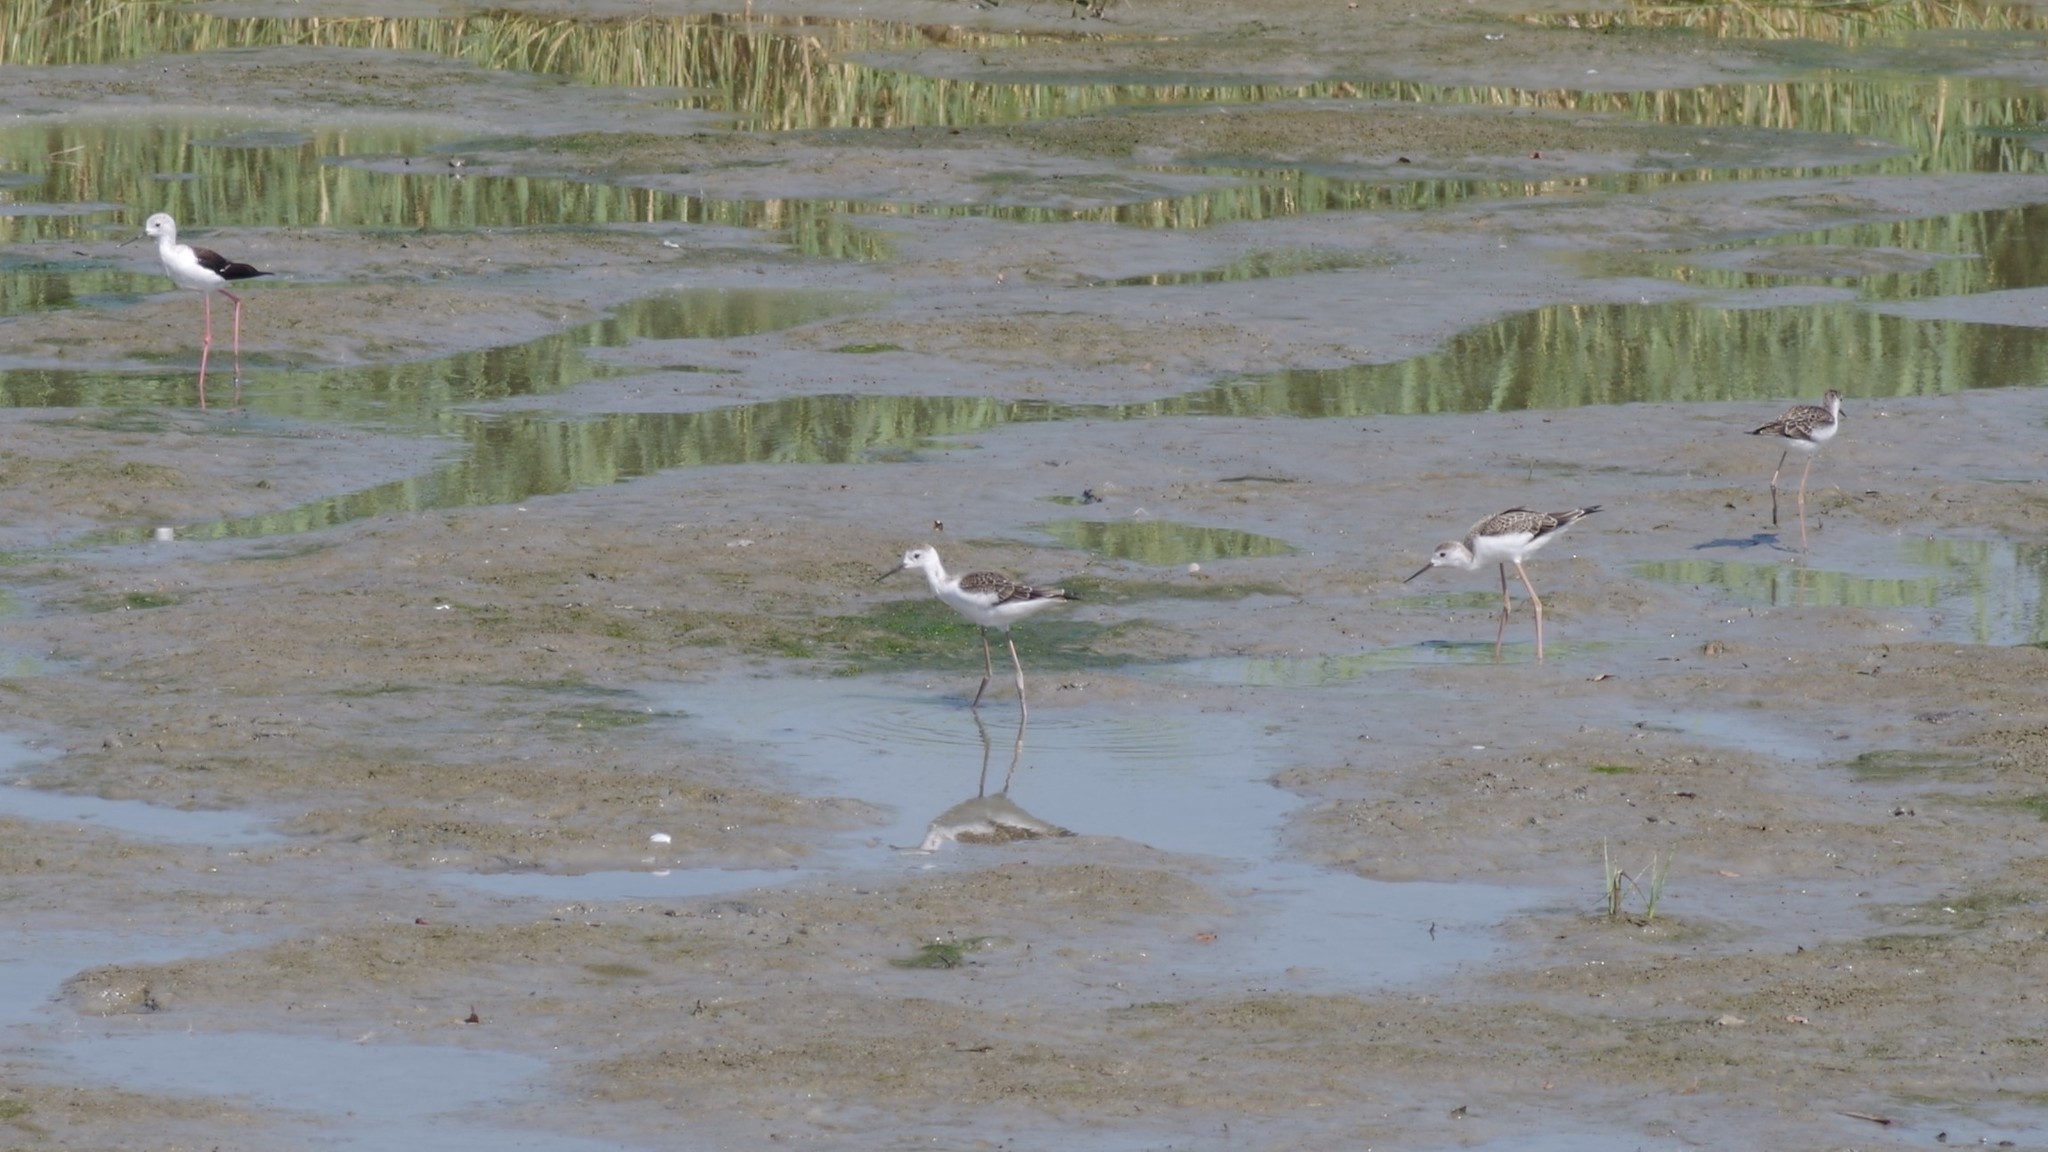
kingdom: Animalia
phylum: Chordata
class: Aves
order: Charadriiformes
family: Recurvirostridae
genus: Himantopus
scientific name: Himantopus himantopus
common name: Black-winged stilt
